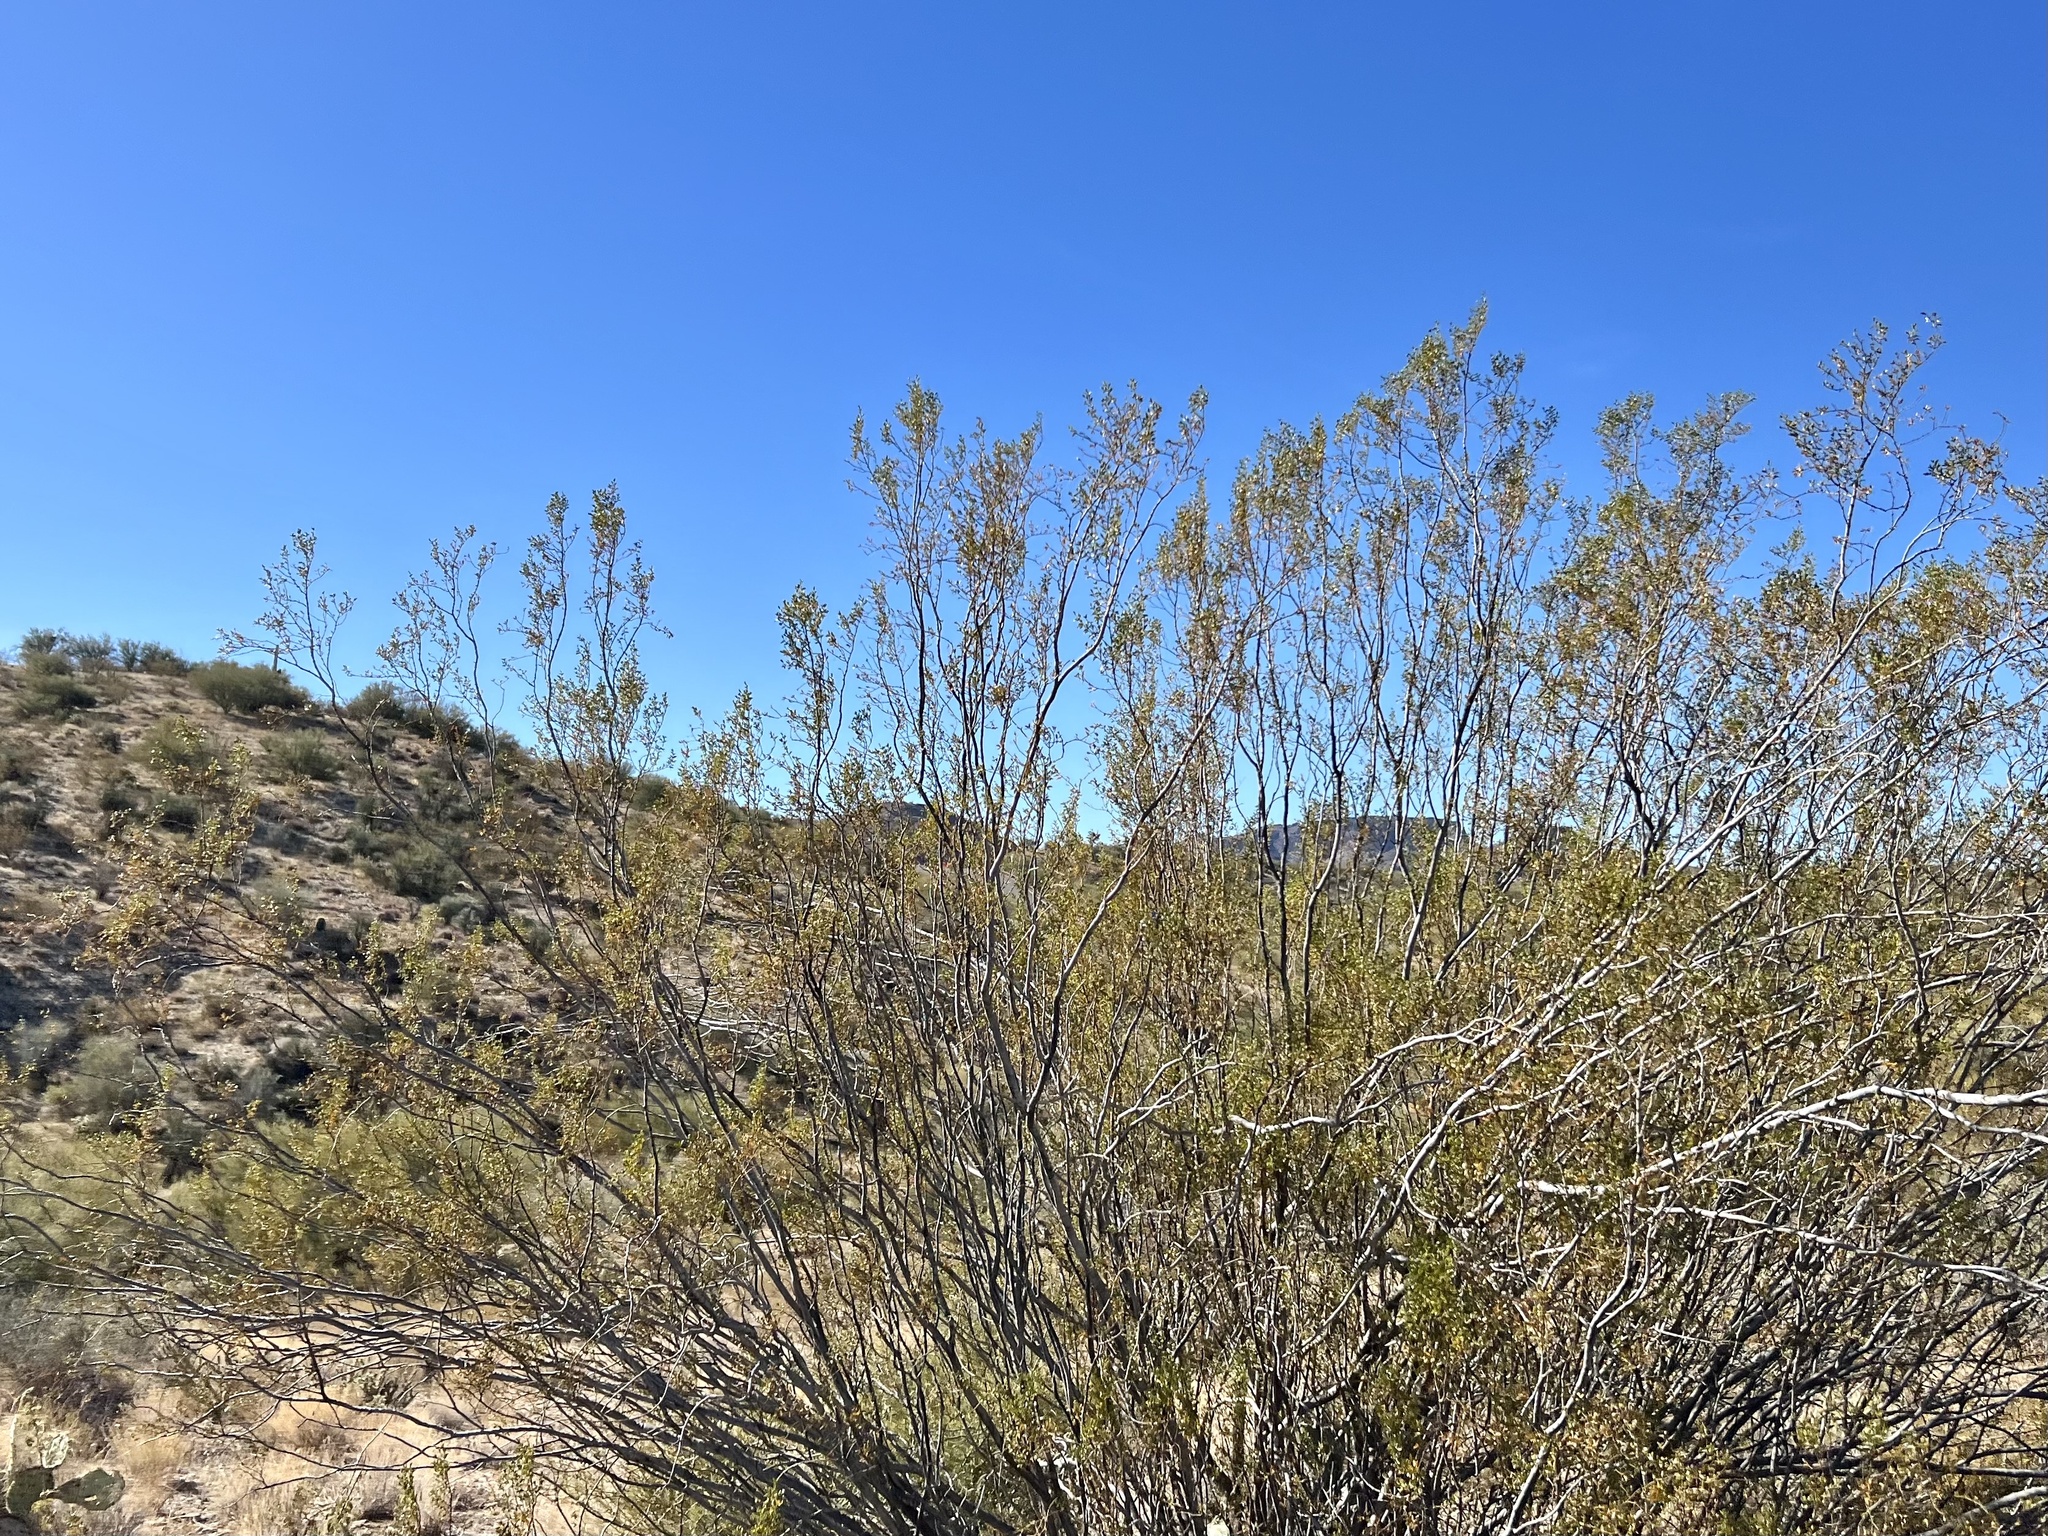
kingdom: Plantae
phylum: Tracheophyta
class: Magnoliopsida
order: Zygophyllales
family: Zygophyllaceae
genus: Larrea
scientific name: Larrea tridentata
